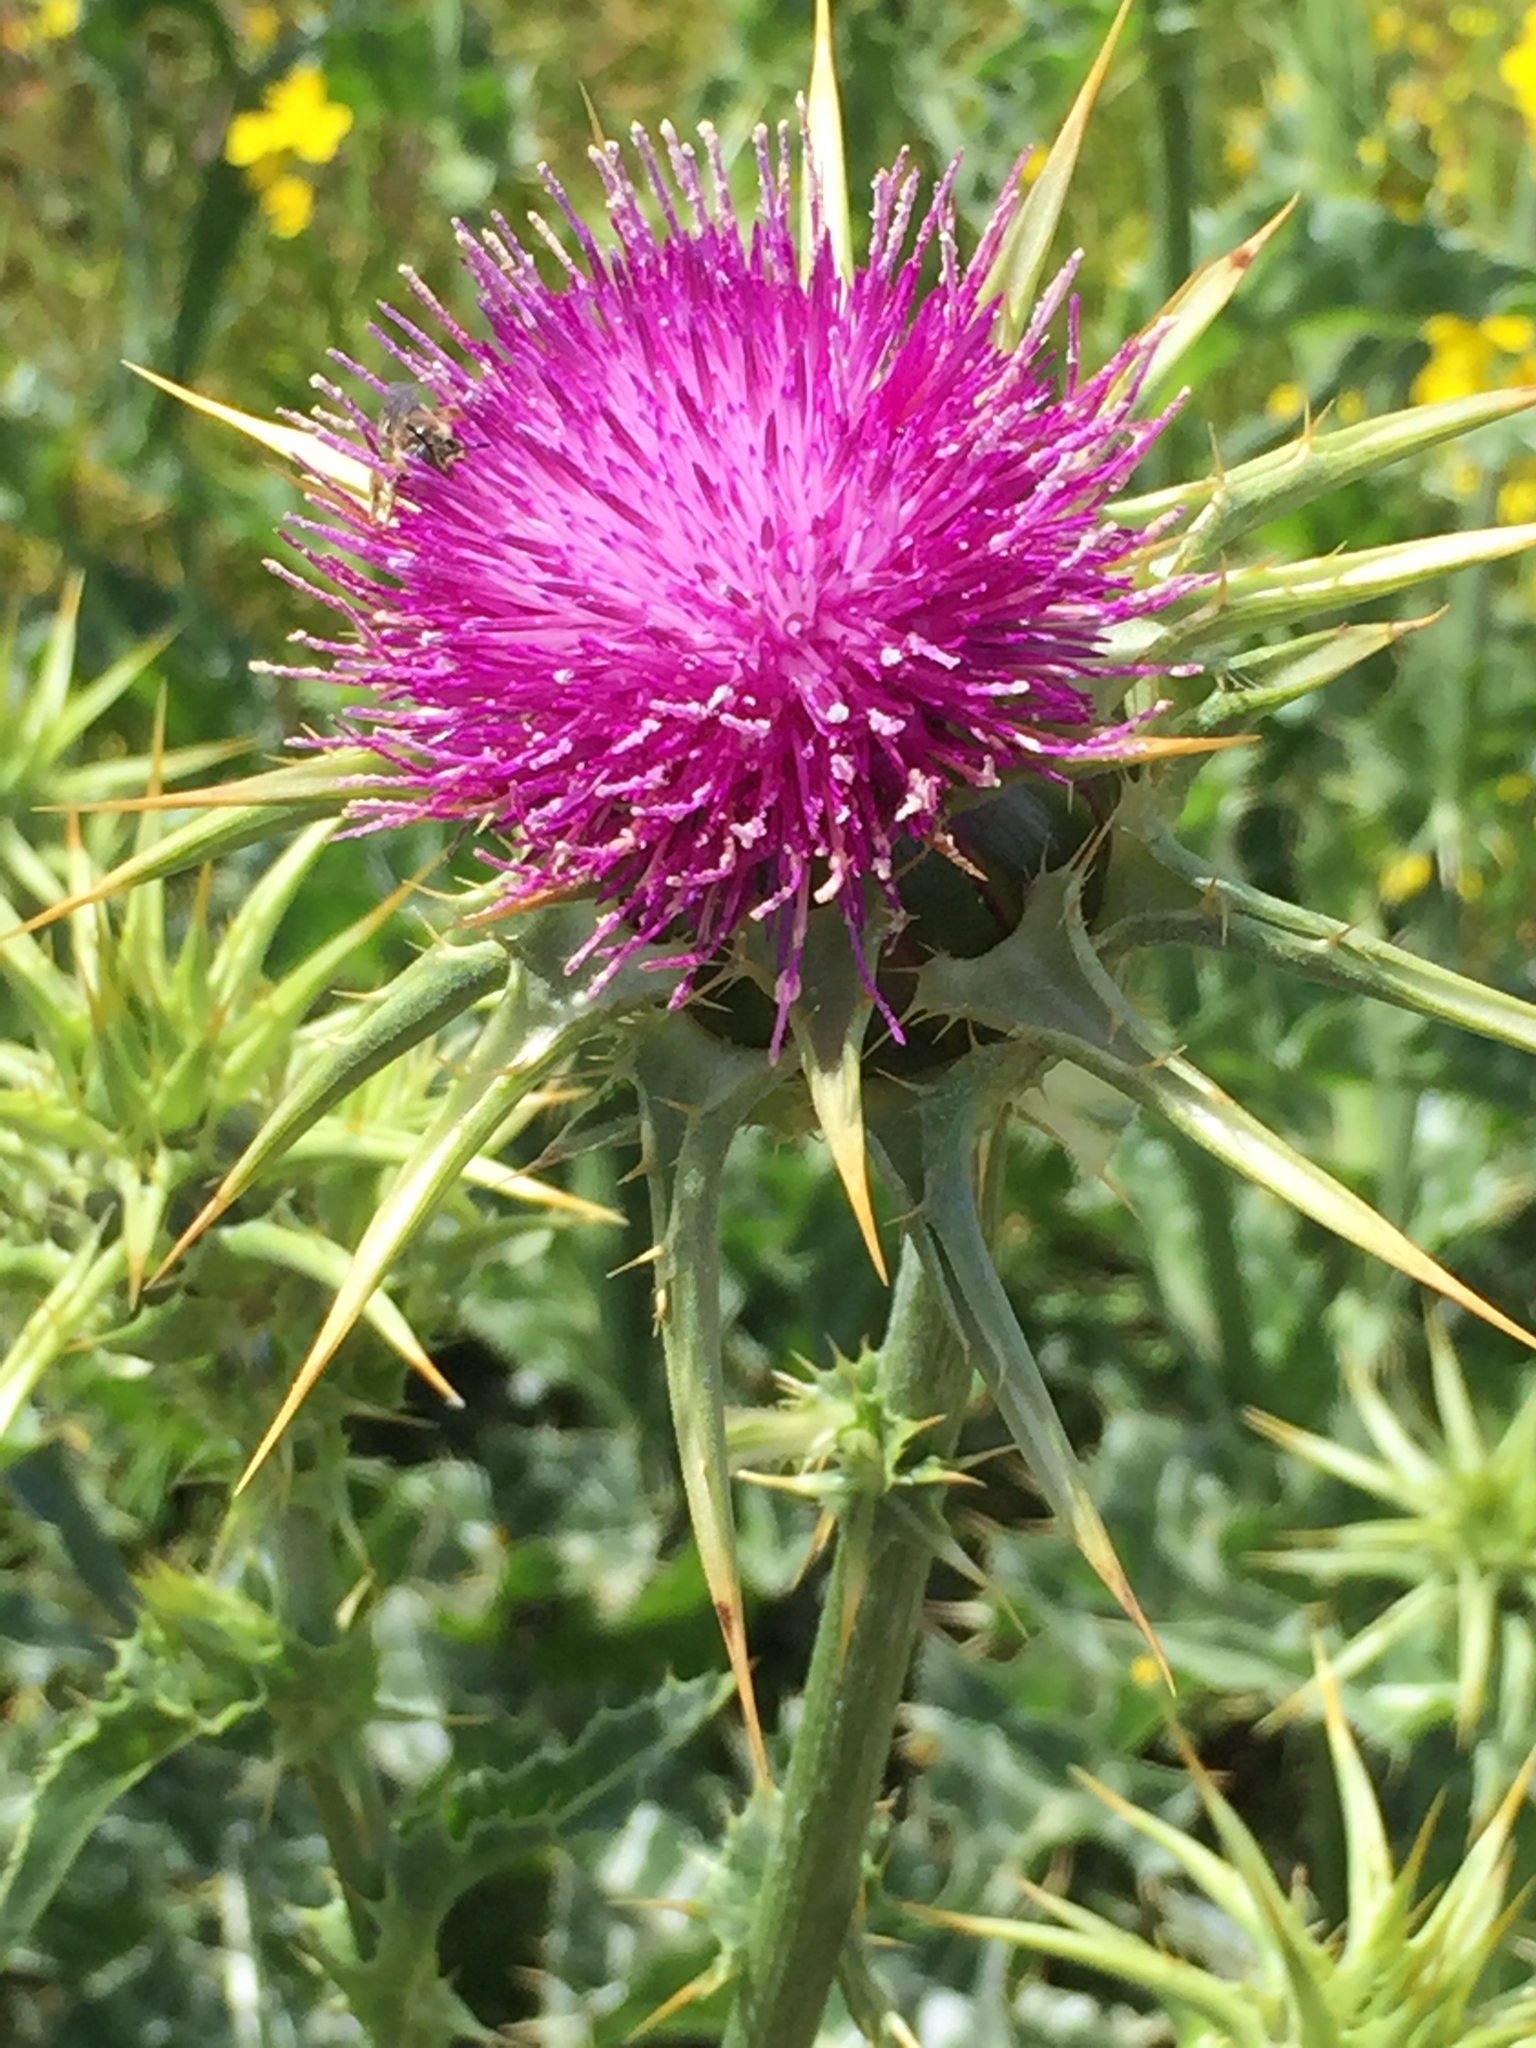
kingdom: Plantae
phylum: Tracheophyta
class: Magnoliopsida
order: Asterales
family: Asteraceae
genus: Silybum
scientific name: Silybum marianum
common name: Milk thistle
